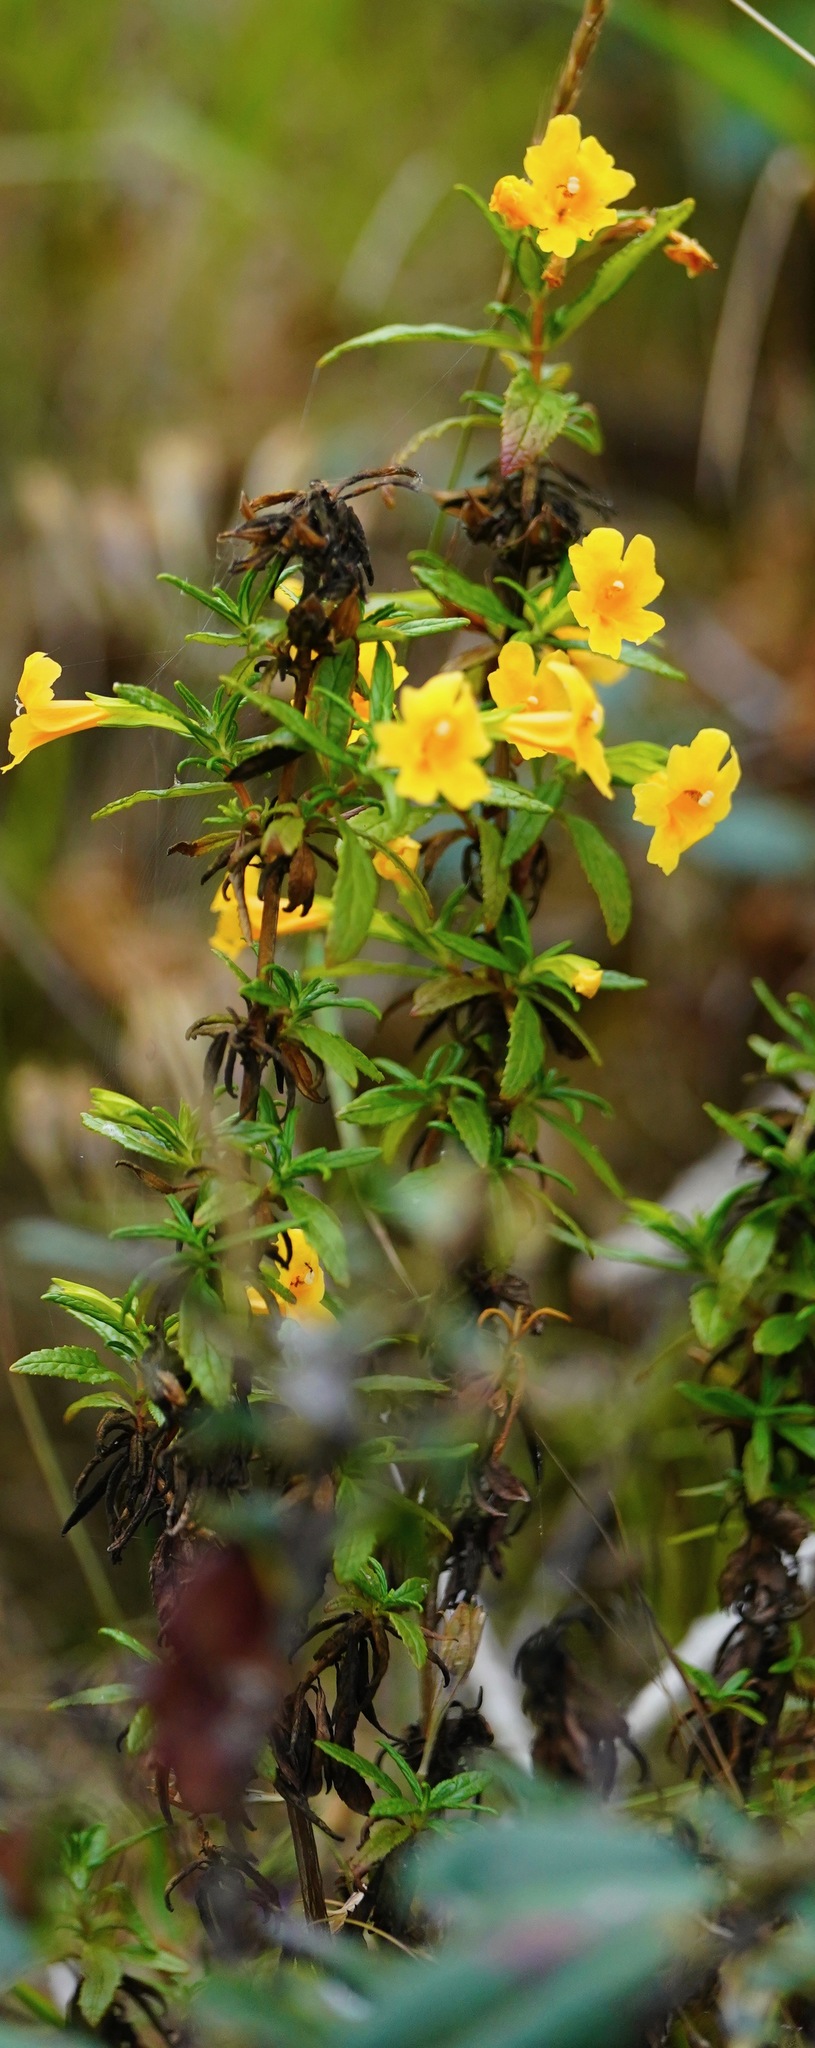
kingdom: Plantae
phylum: Tracheophyta
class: Magnoliopsida
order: Lamiales
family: Phrymaceae
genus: Diplacus
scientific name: Diplacus aurantiacus
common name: Bush monkey-flower
